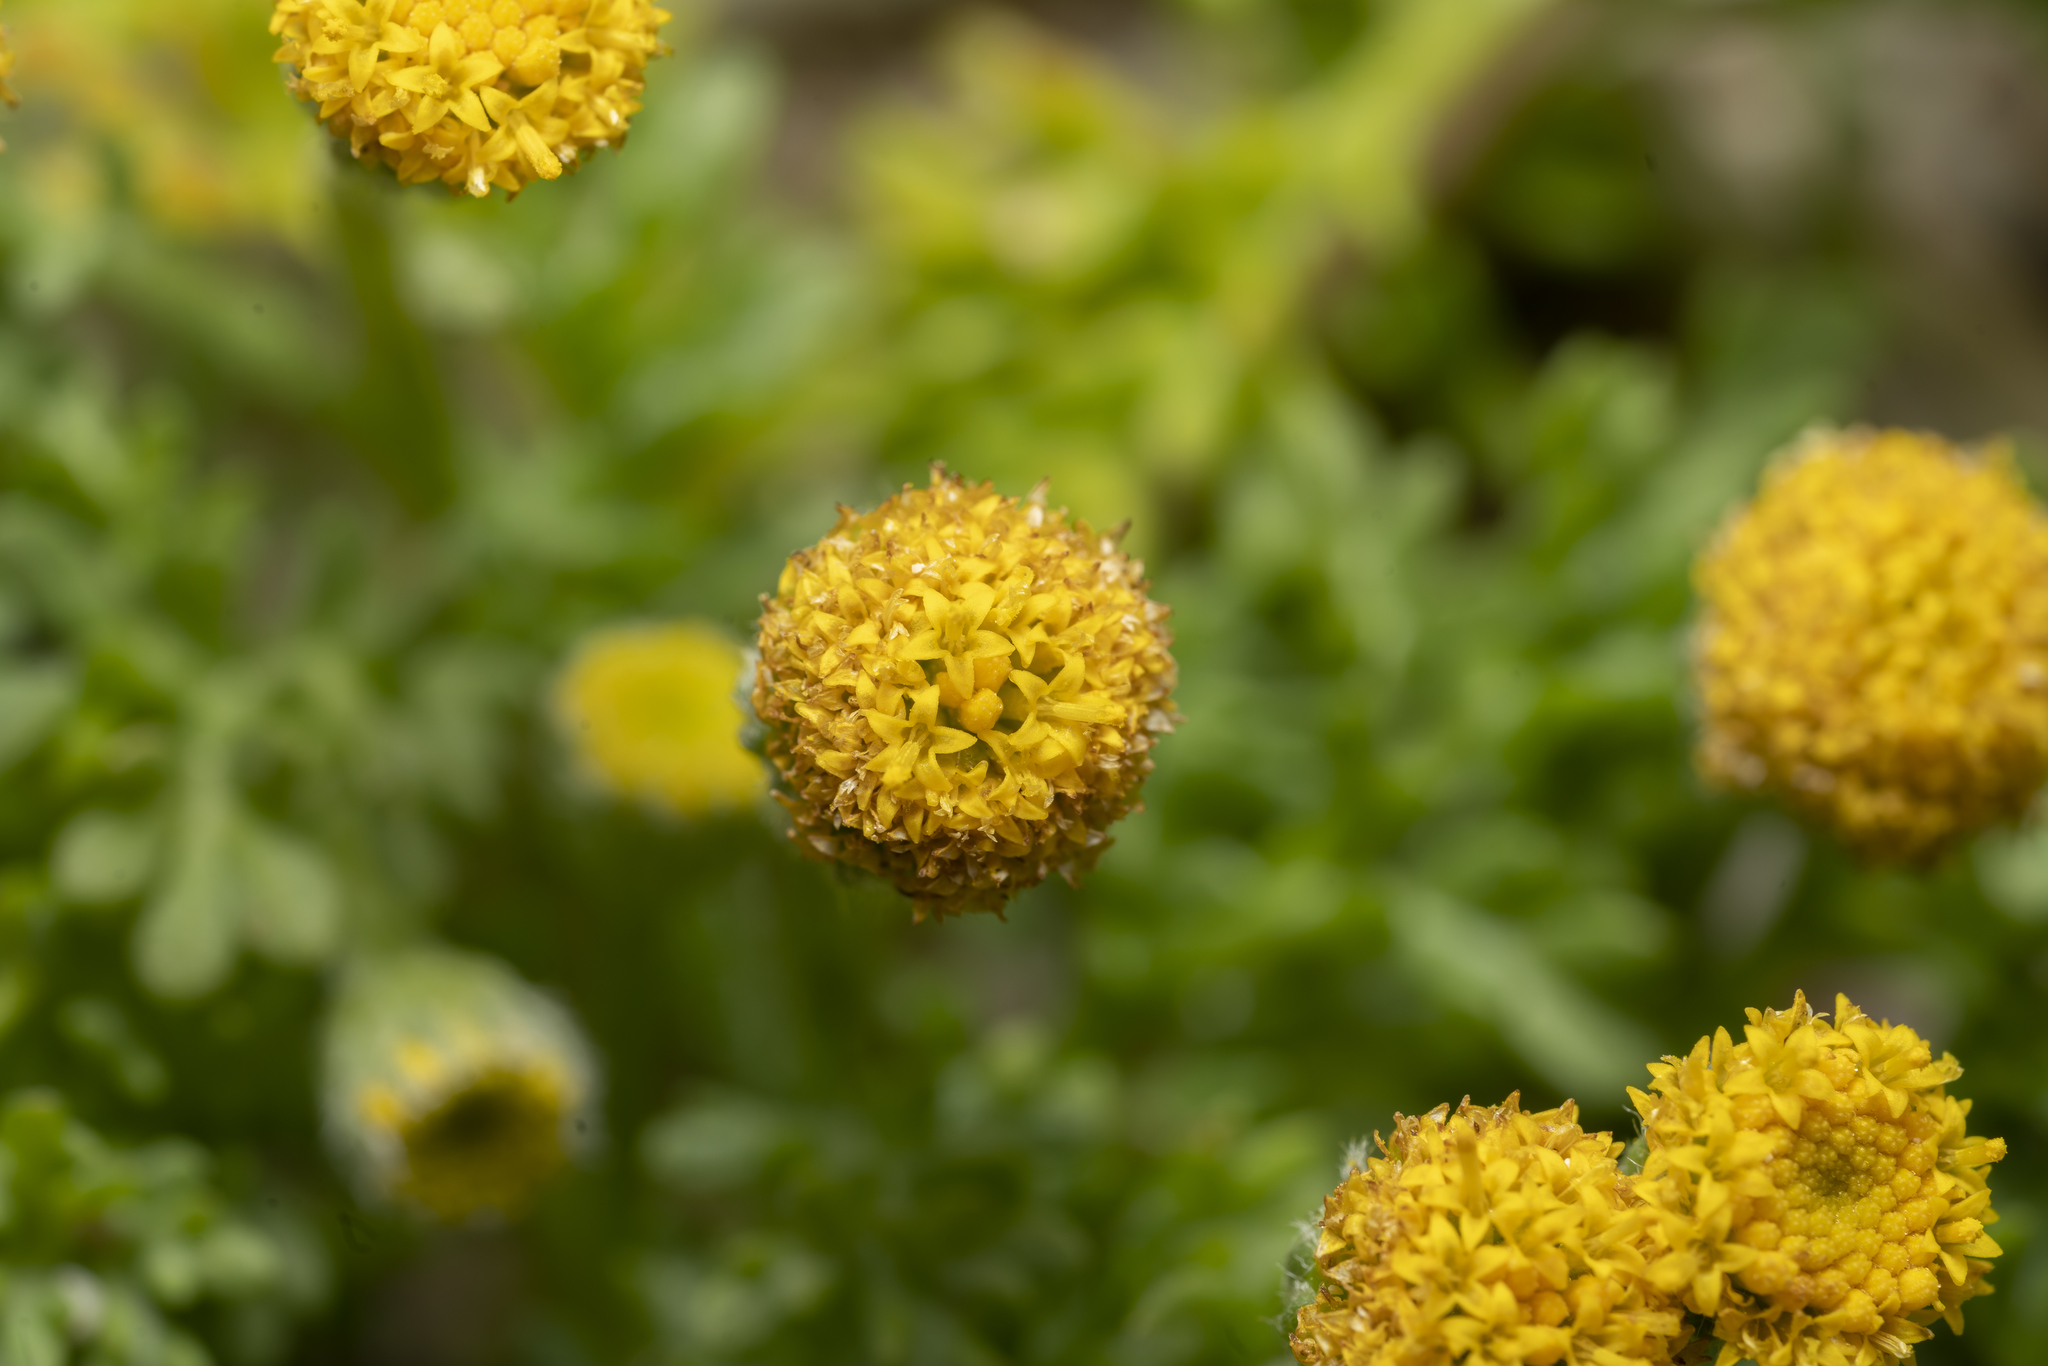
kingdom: Plantae
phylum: Tracheophyta
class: Magnoliopsida
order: Asterales
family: Asteraceae
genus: Anthemis
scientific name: Anthemis rigida
